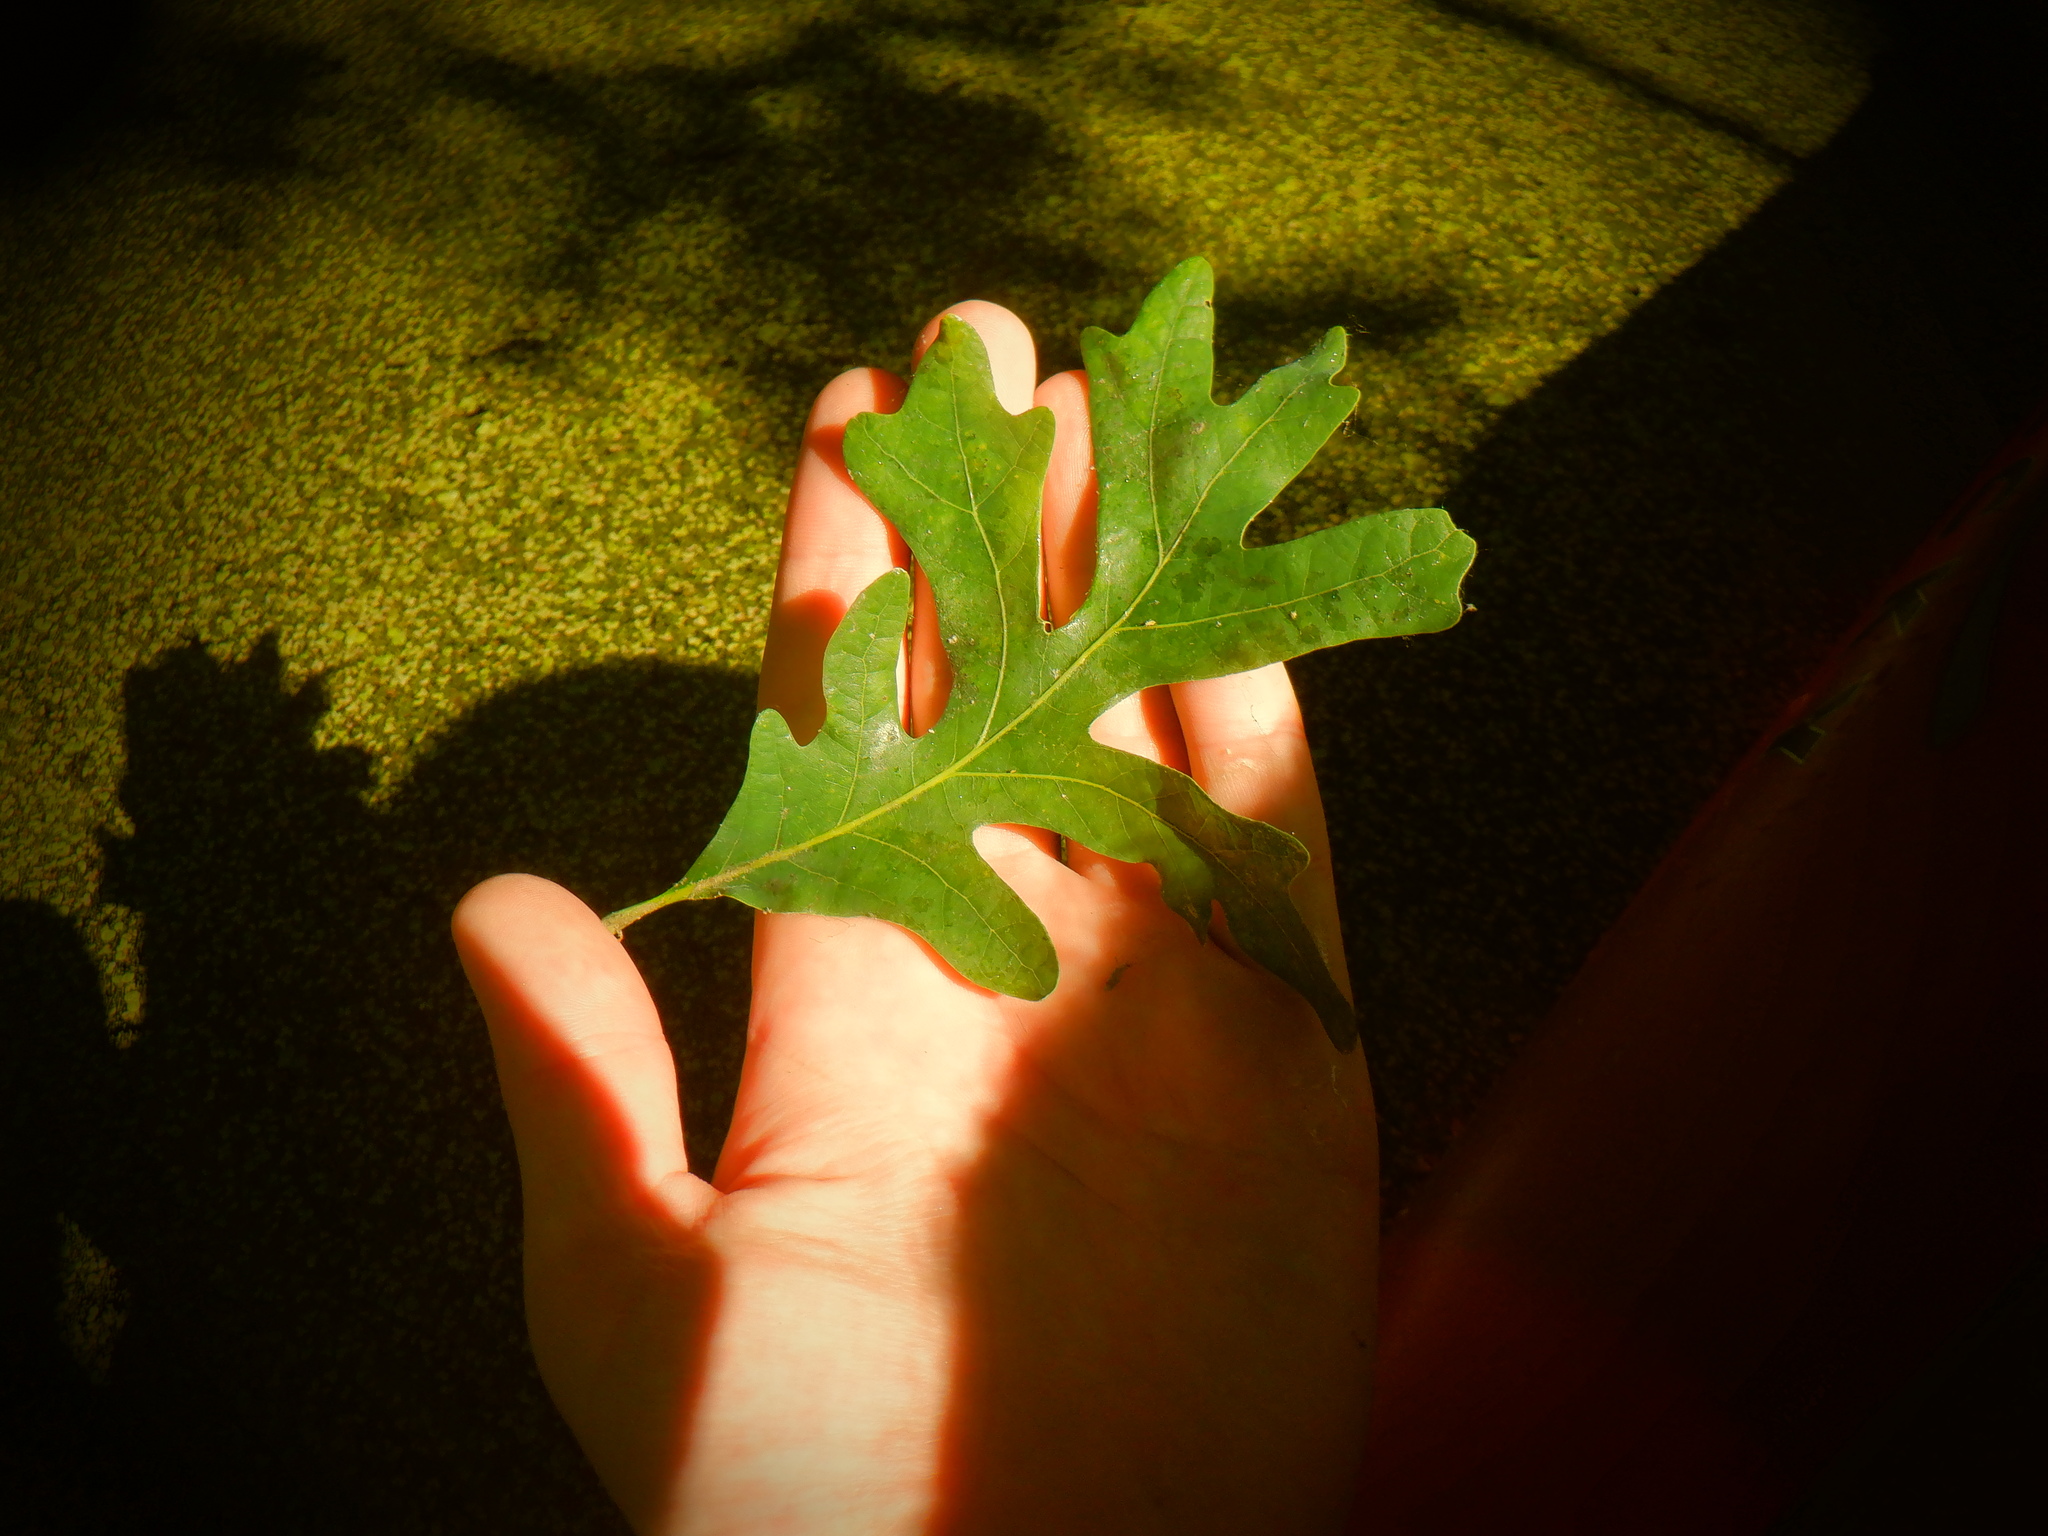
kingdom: Plantae
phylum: Tracheophyta
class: Magnoliopsida
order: Fagales
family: Fagaceae
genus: Quercus
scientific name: Quercus alba
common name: White oak
